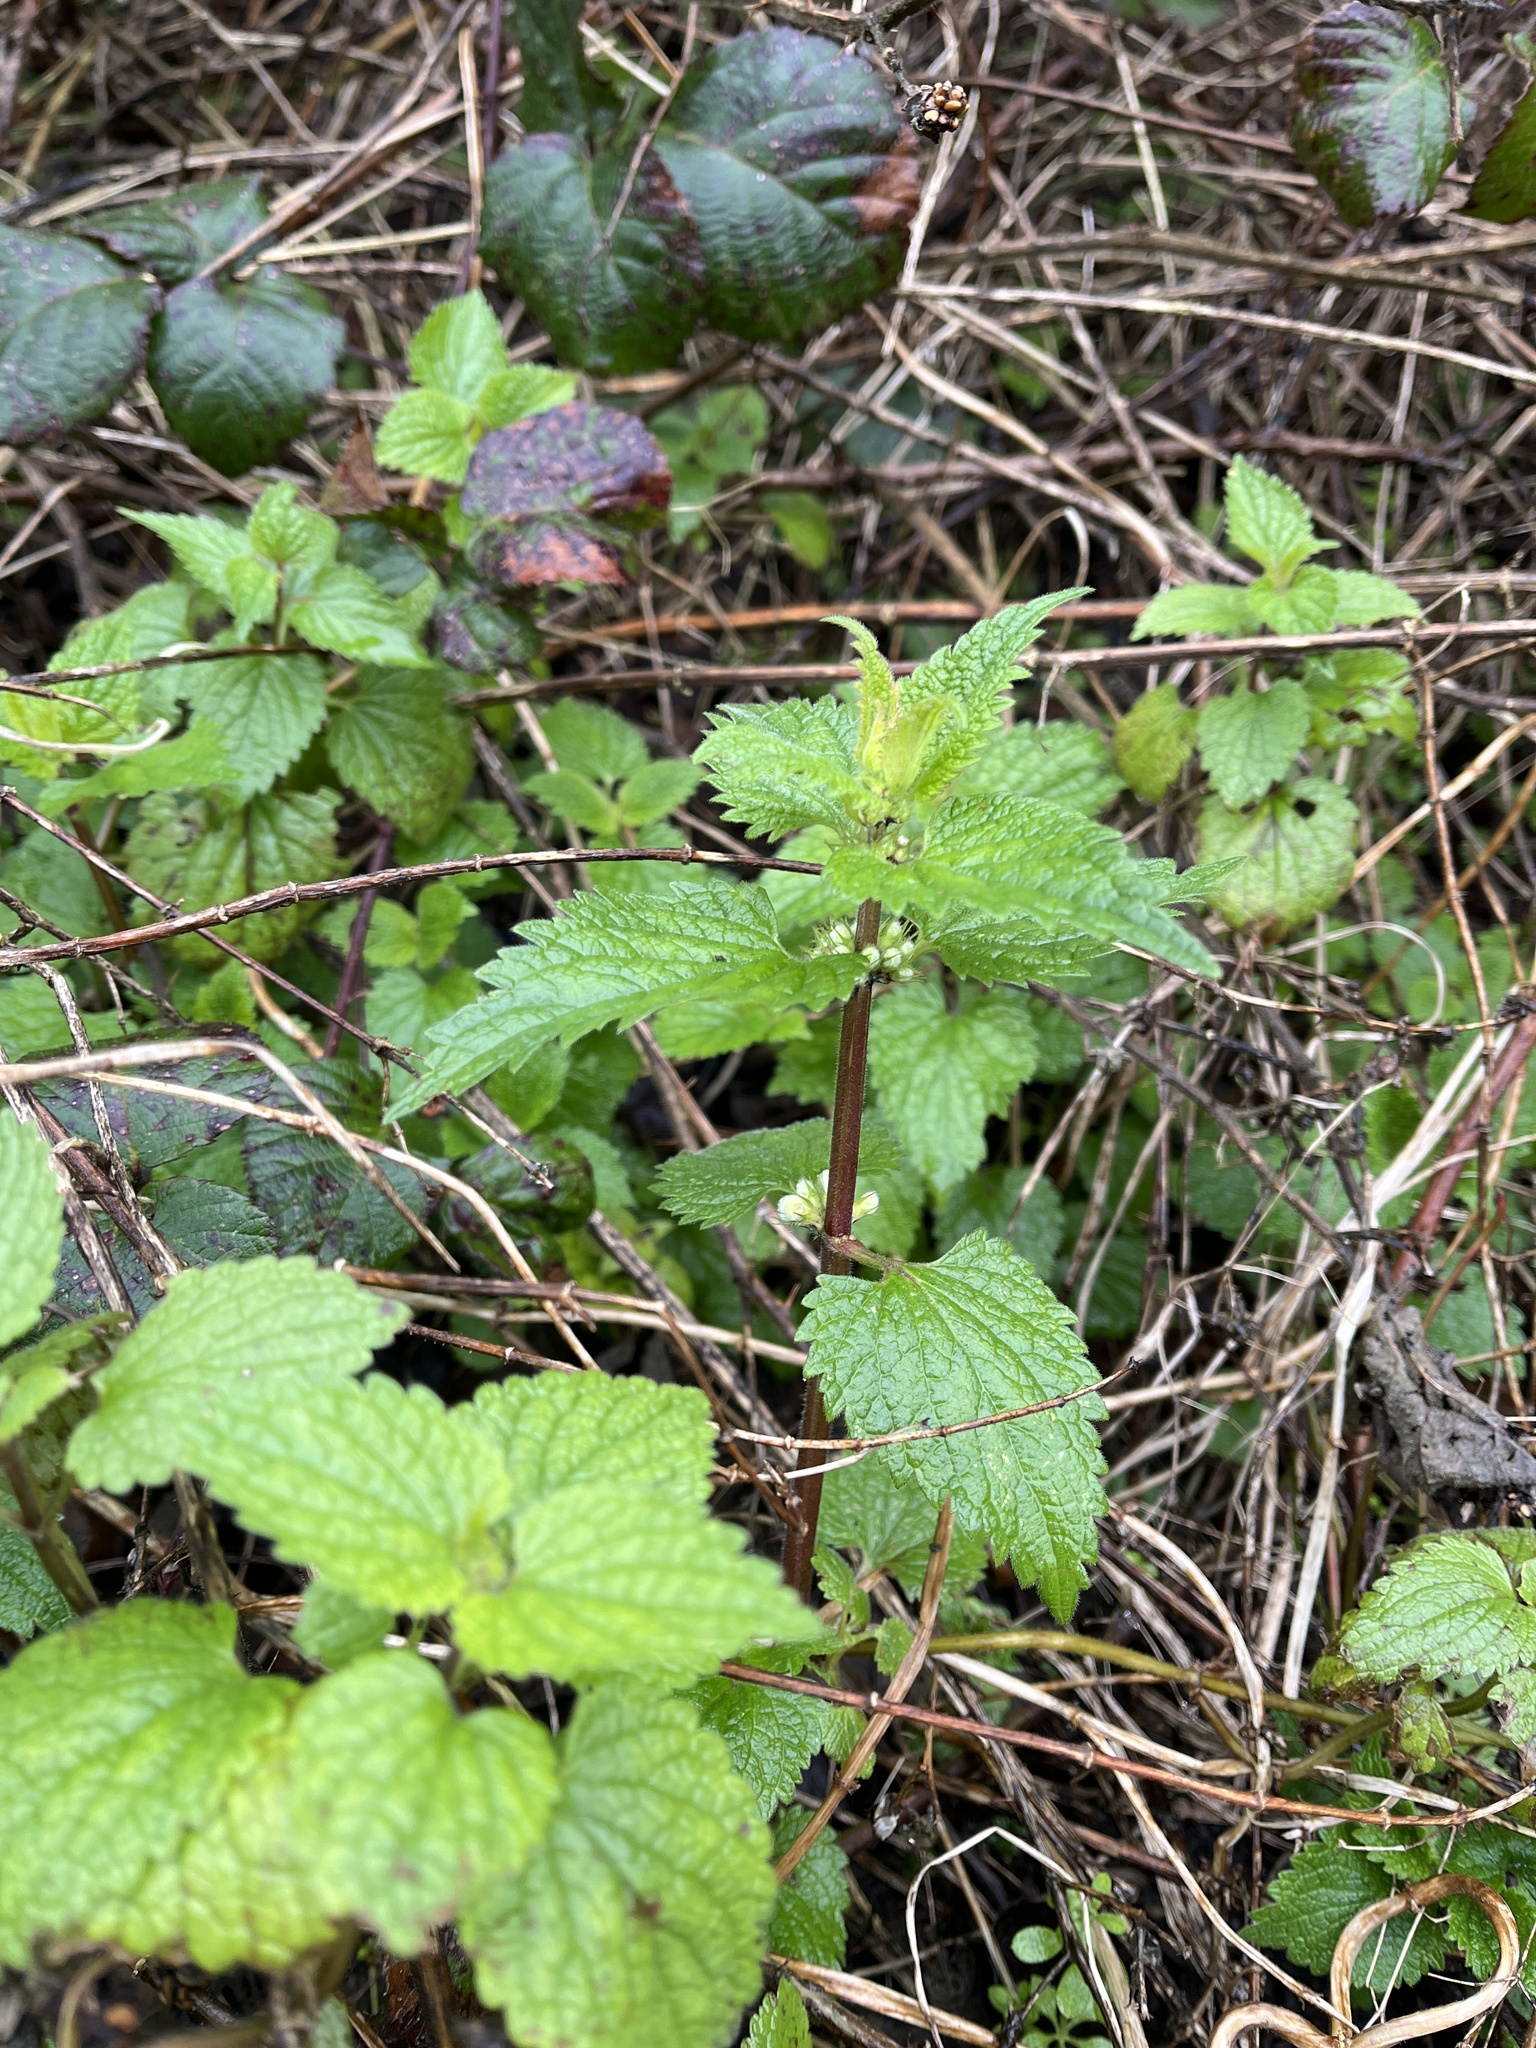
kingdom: Plantae
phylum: Tracheophyta
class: Magnoliopsida
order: Lamiales
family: Lamiaceae
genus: Lamium
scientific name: Lamium album
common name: White dead-nettle
